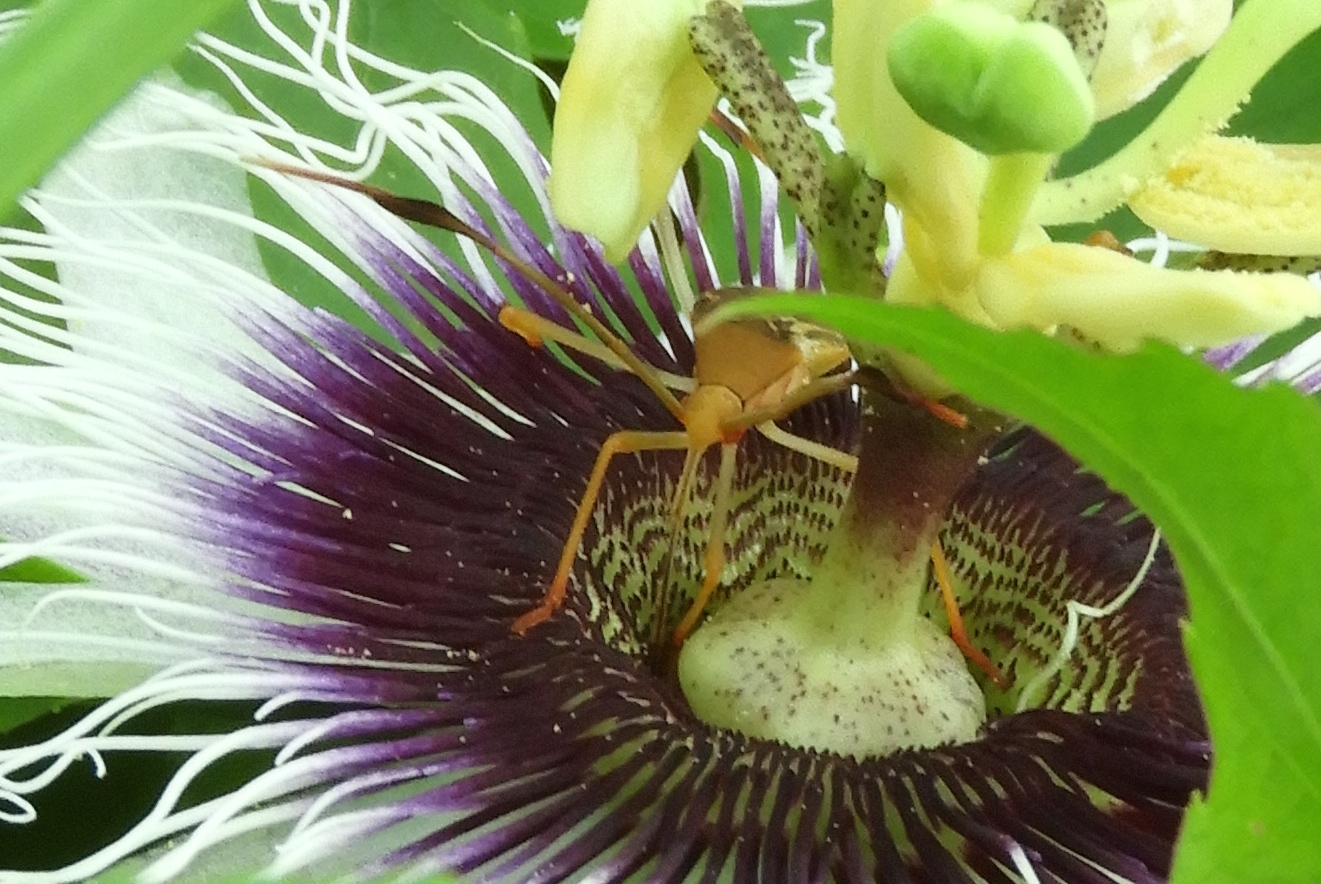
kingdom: Animalia
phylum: Arthropoda
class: Insecta
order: Hemiptera
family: Coreidae
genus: Bitta
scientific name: Bitta
